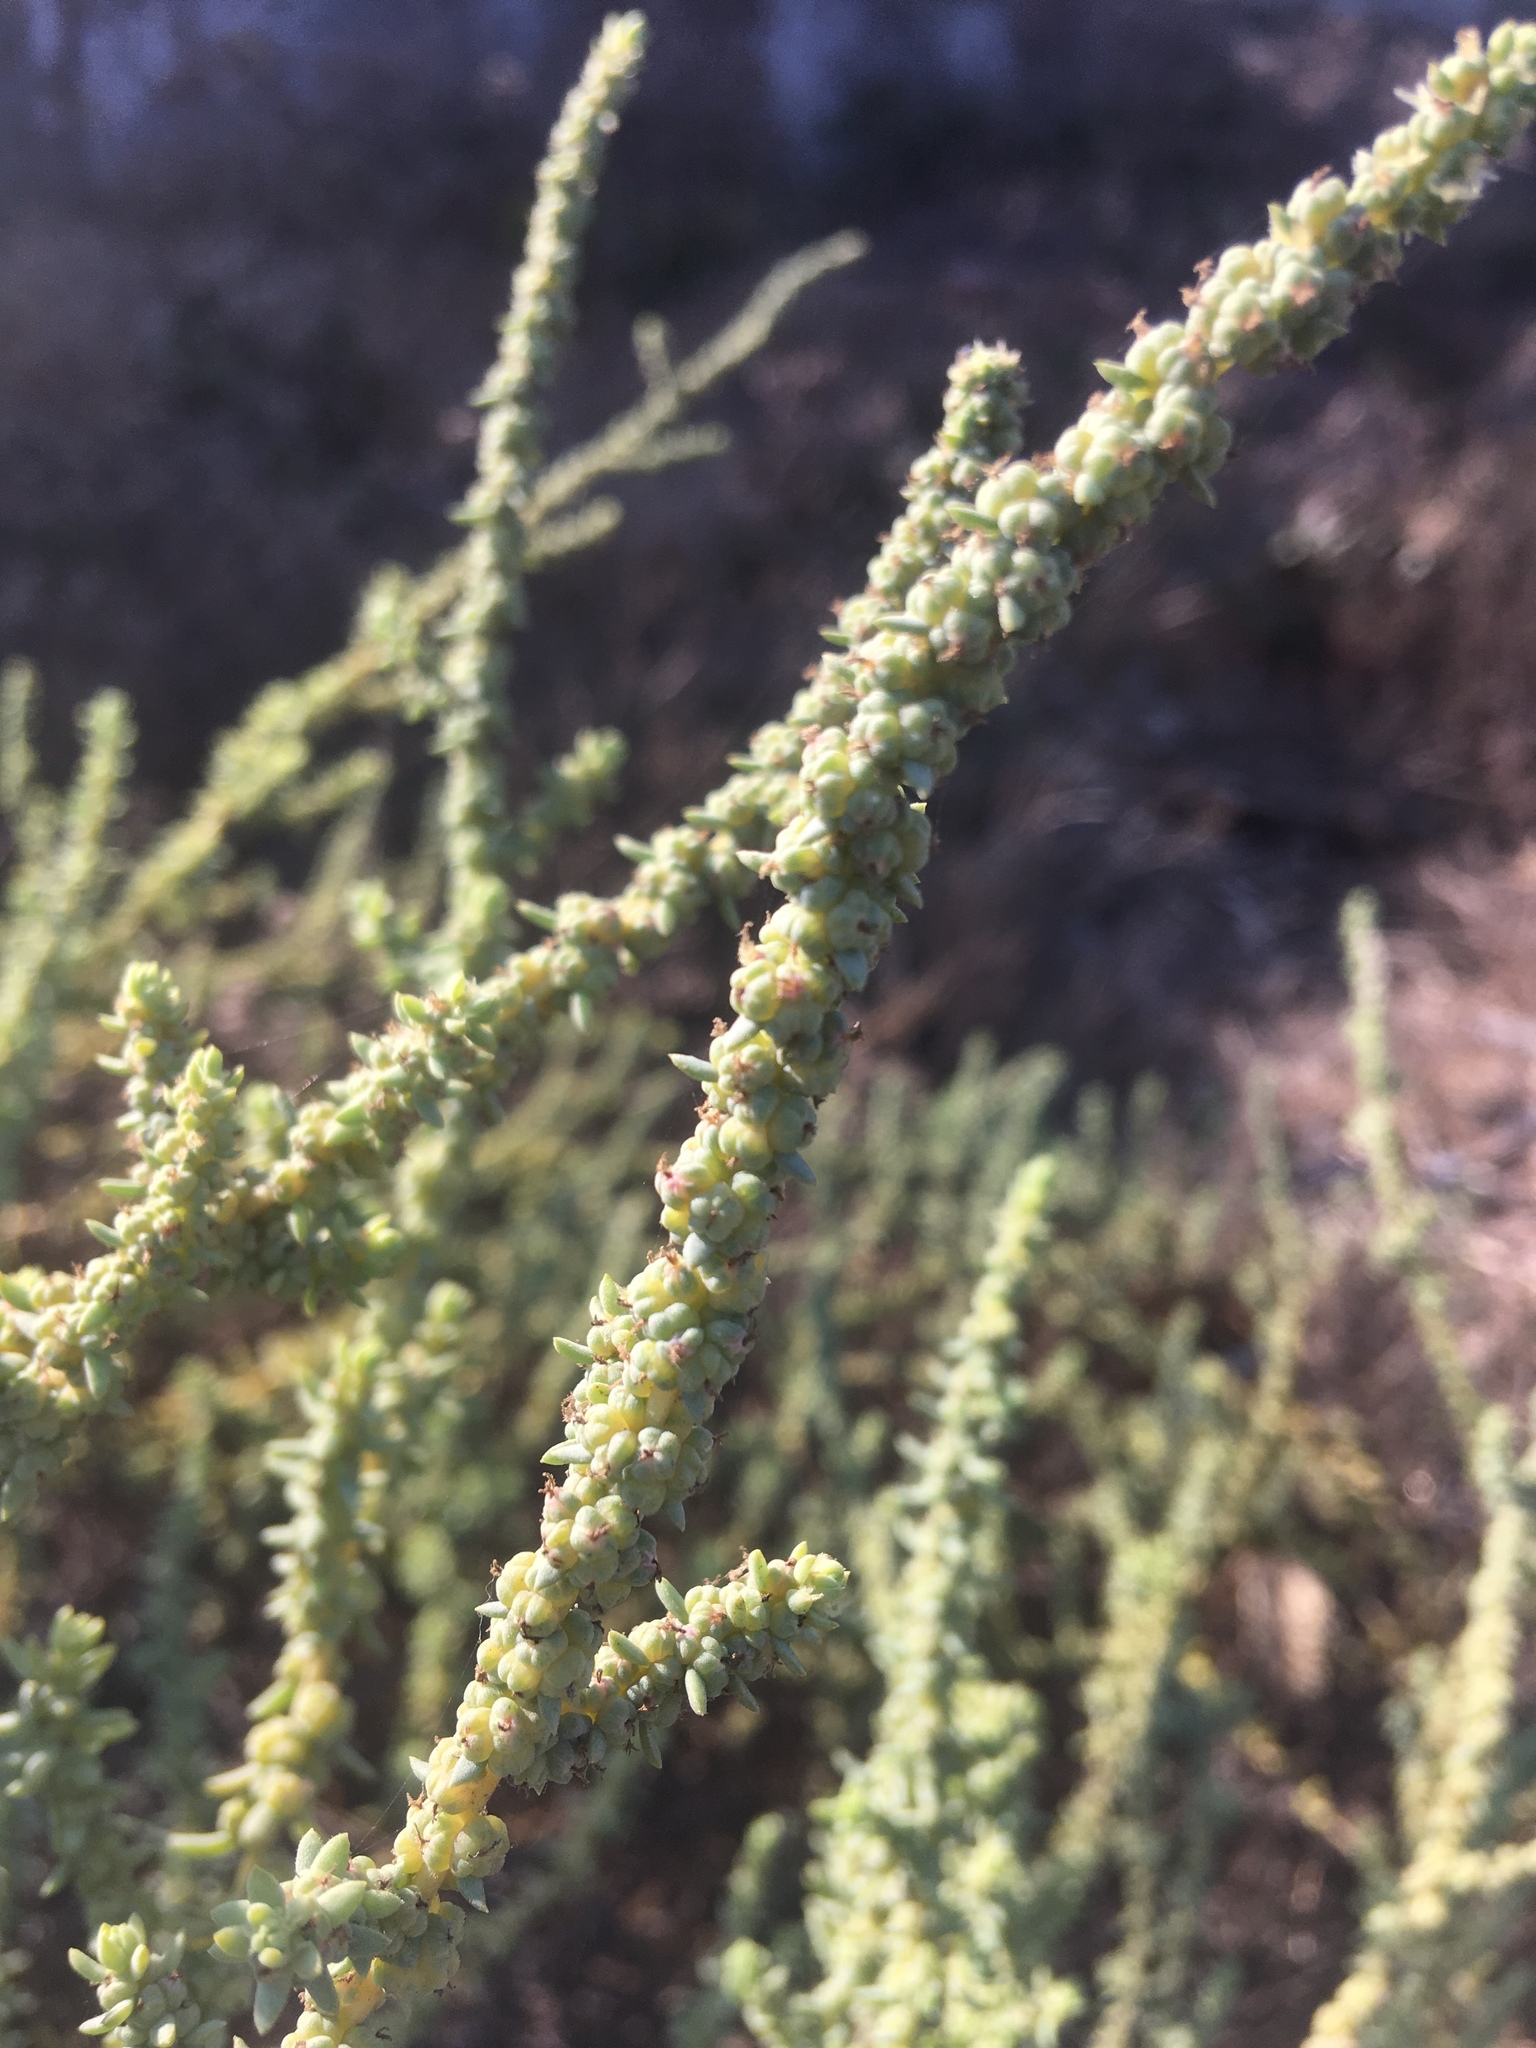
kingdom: Plantae
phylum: Tracheophyta
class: Magnoliopsida
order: Caryophyllales
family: Amaranthaceae
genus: Suaeda
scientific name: Suaeda taxifolia
